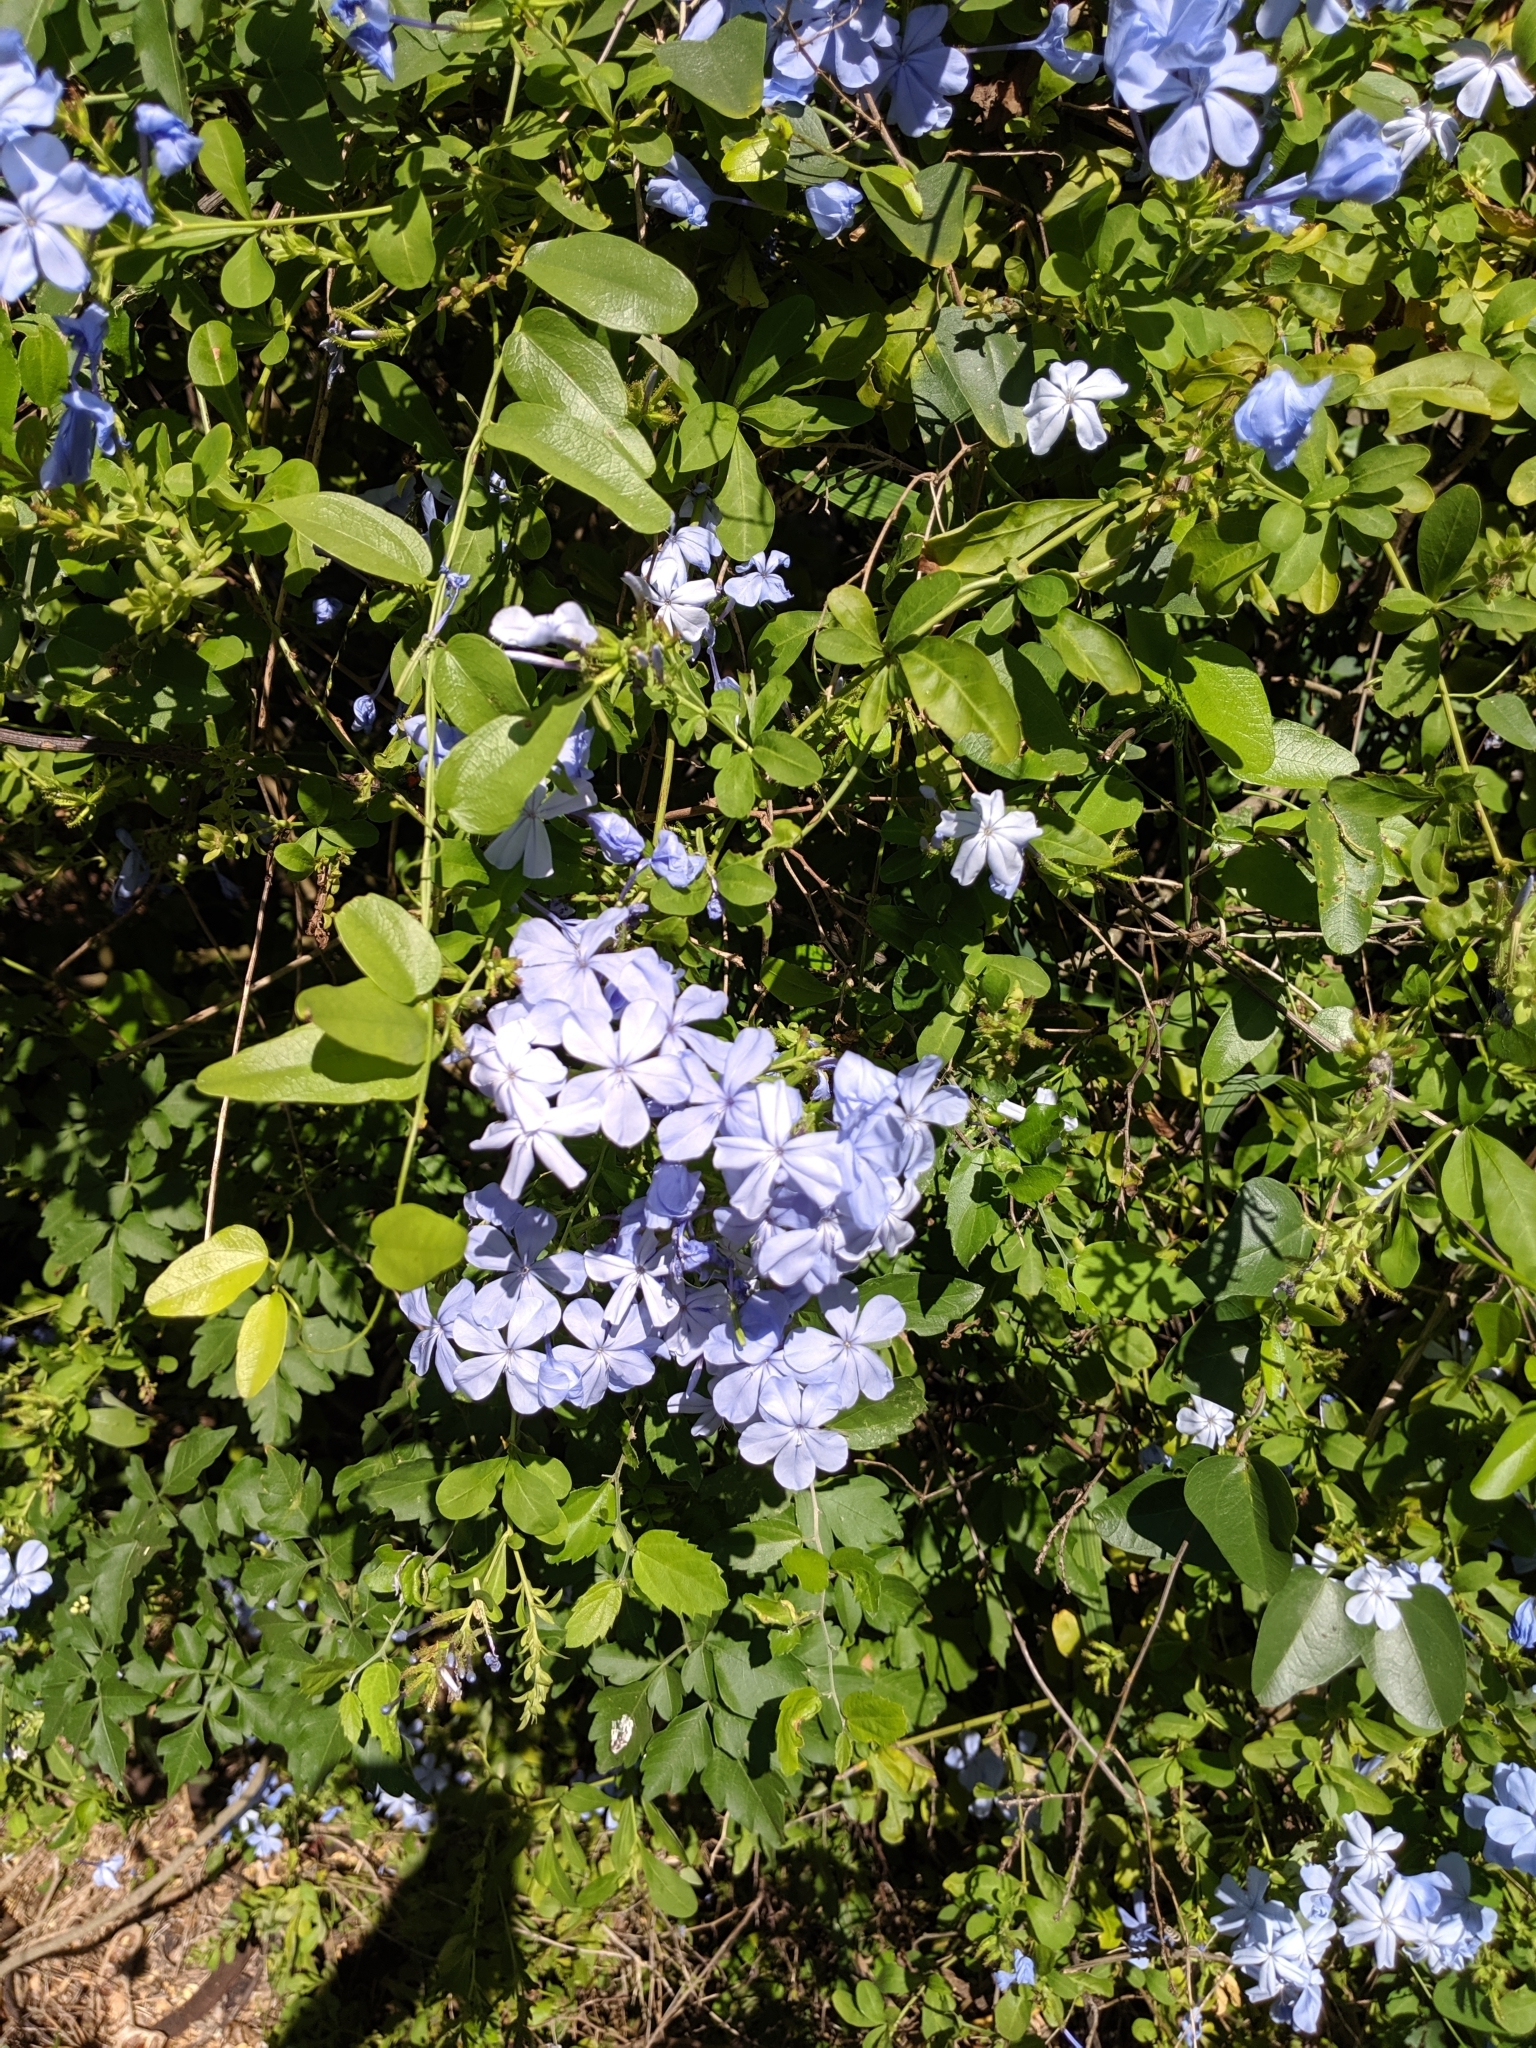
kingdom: Plantae
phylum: Tracheophyta
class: Magnoliopsida
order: Caryophyllales
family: Plumbaginaceae
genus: Plumbago
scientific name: Plumbago auriculata
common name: Cape leadwort
